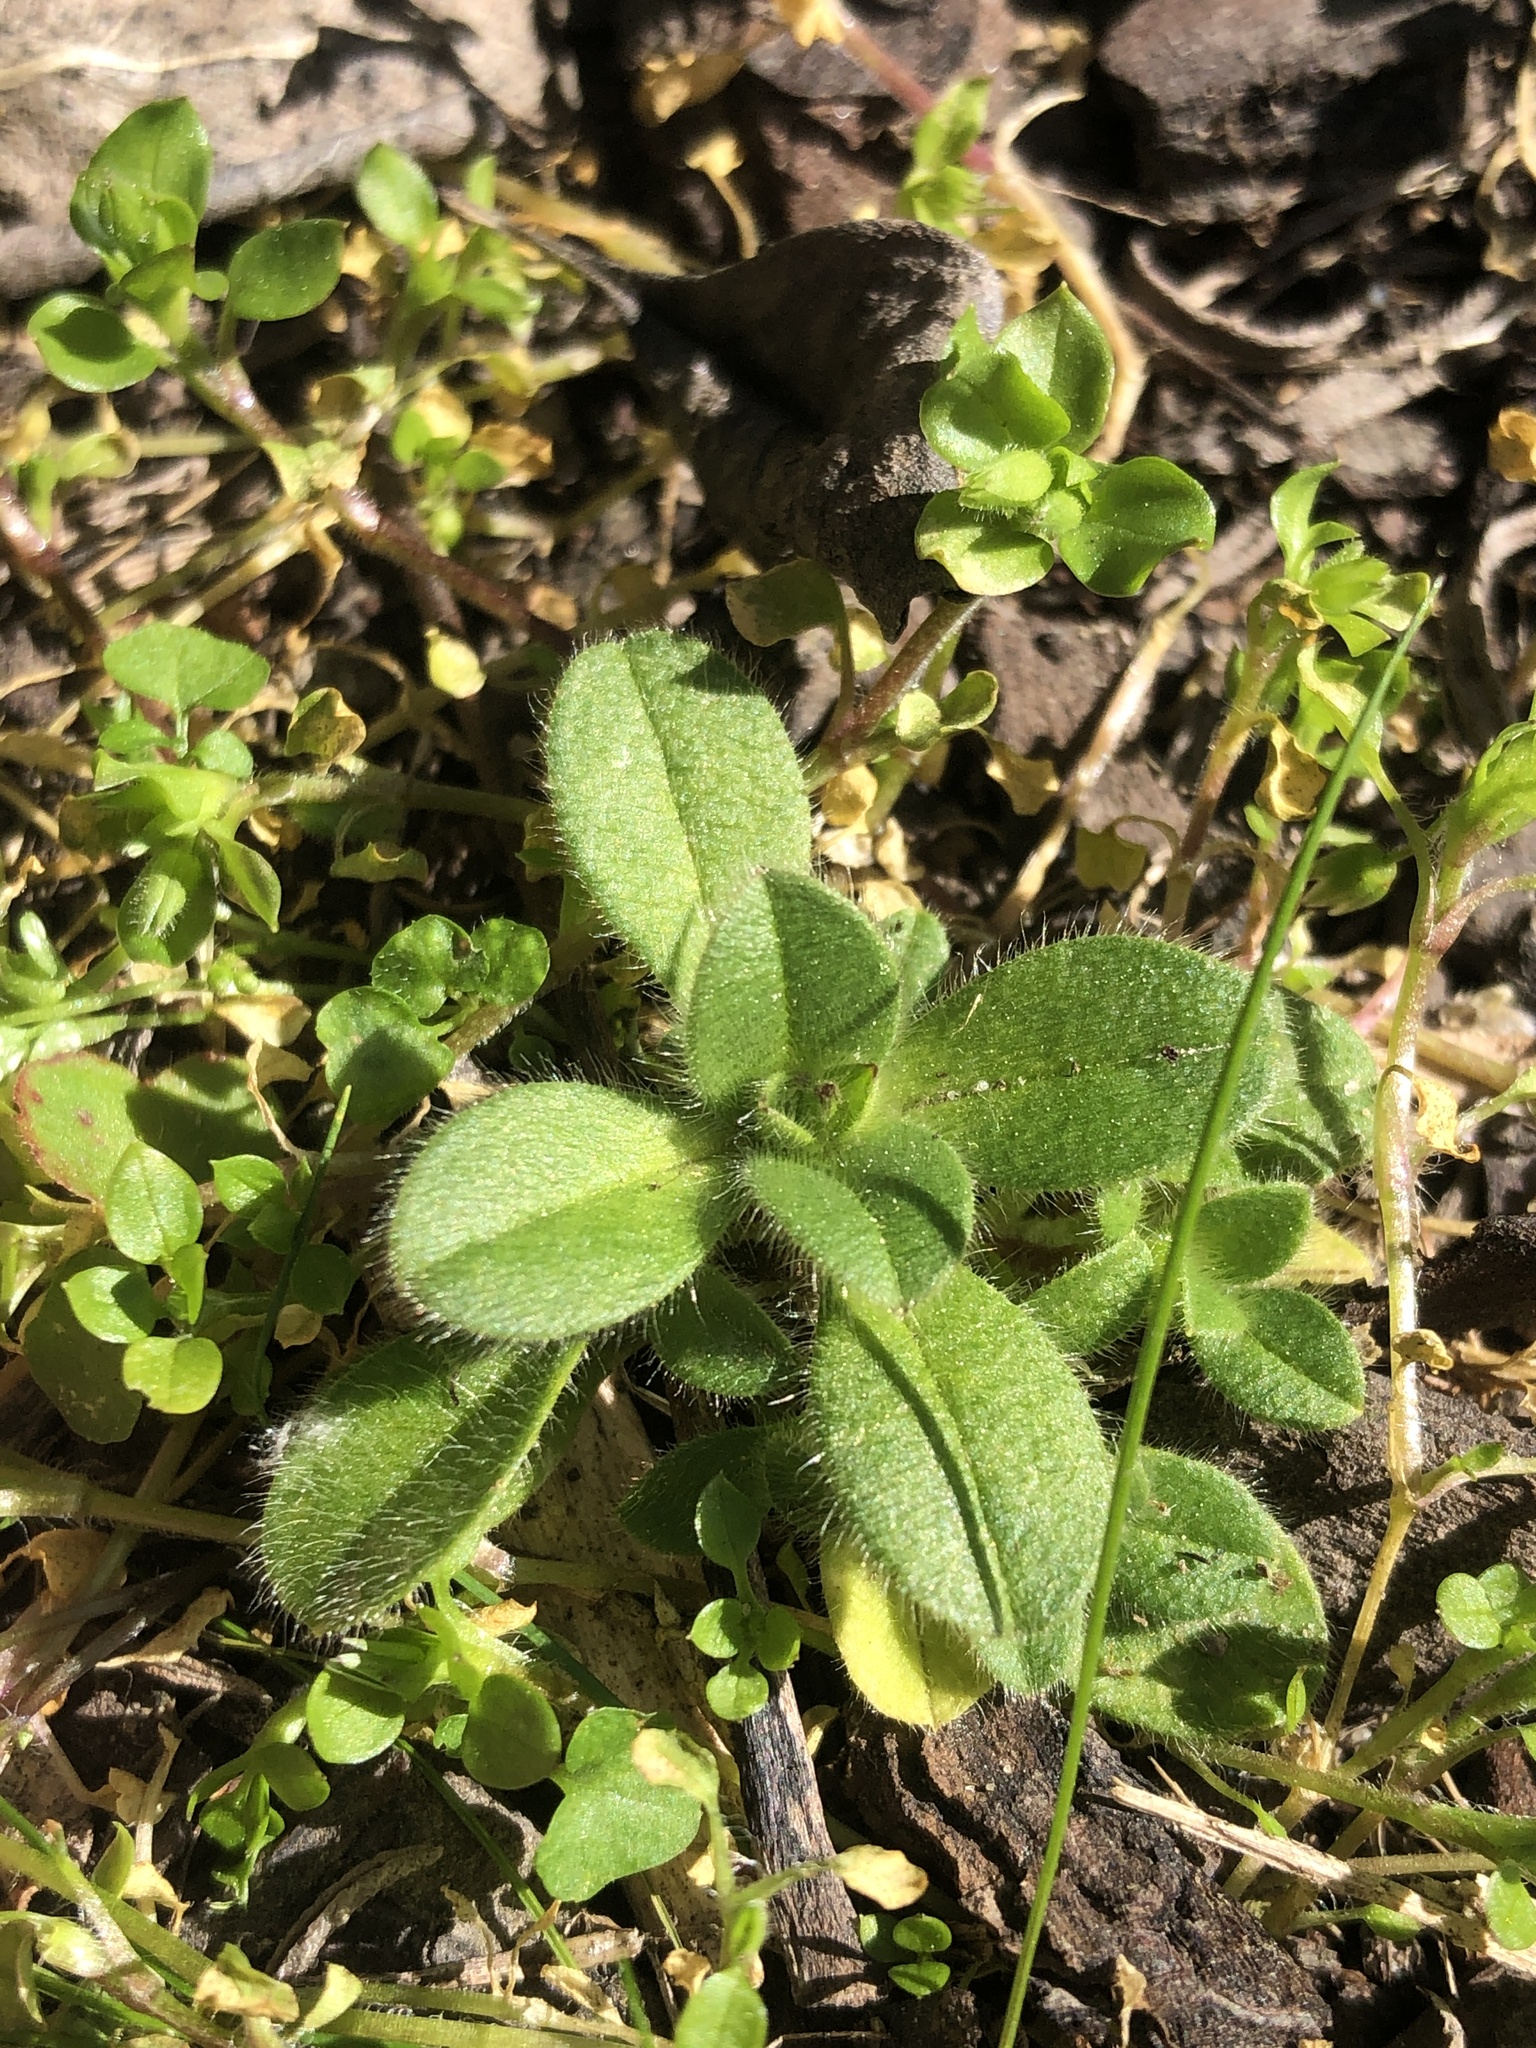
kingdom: Plantae
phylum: Tracheophyta
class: Magnoliopsida
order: Caryophyllales
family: Caryophyllaceae
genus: Cerastium
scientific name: Cerastium glomeratum
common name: Sticky chickweed
